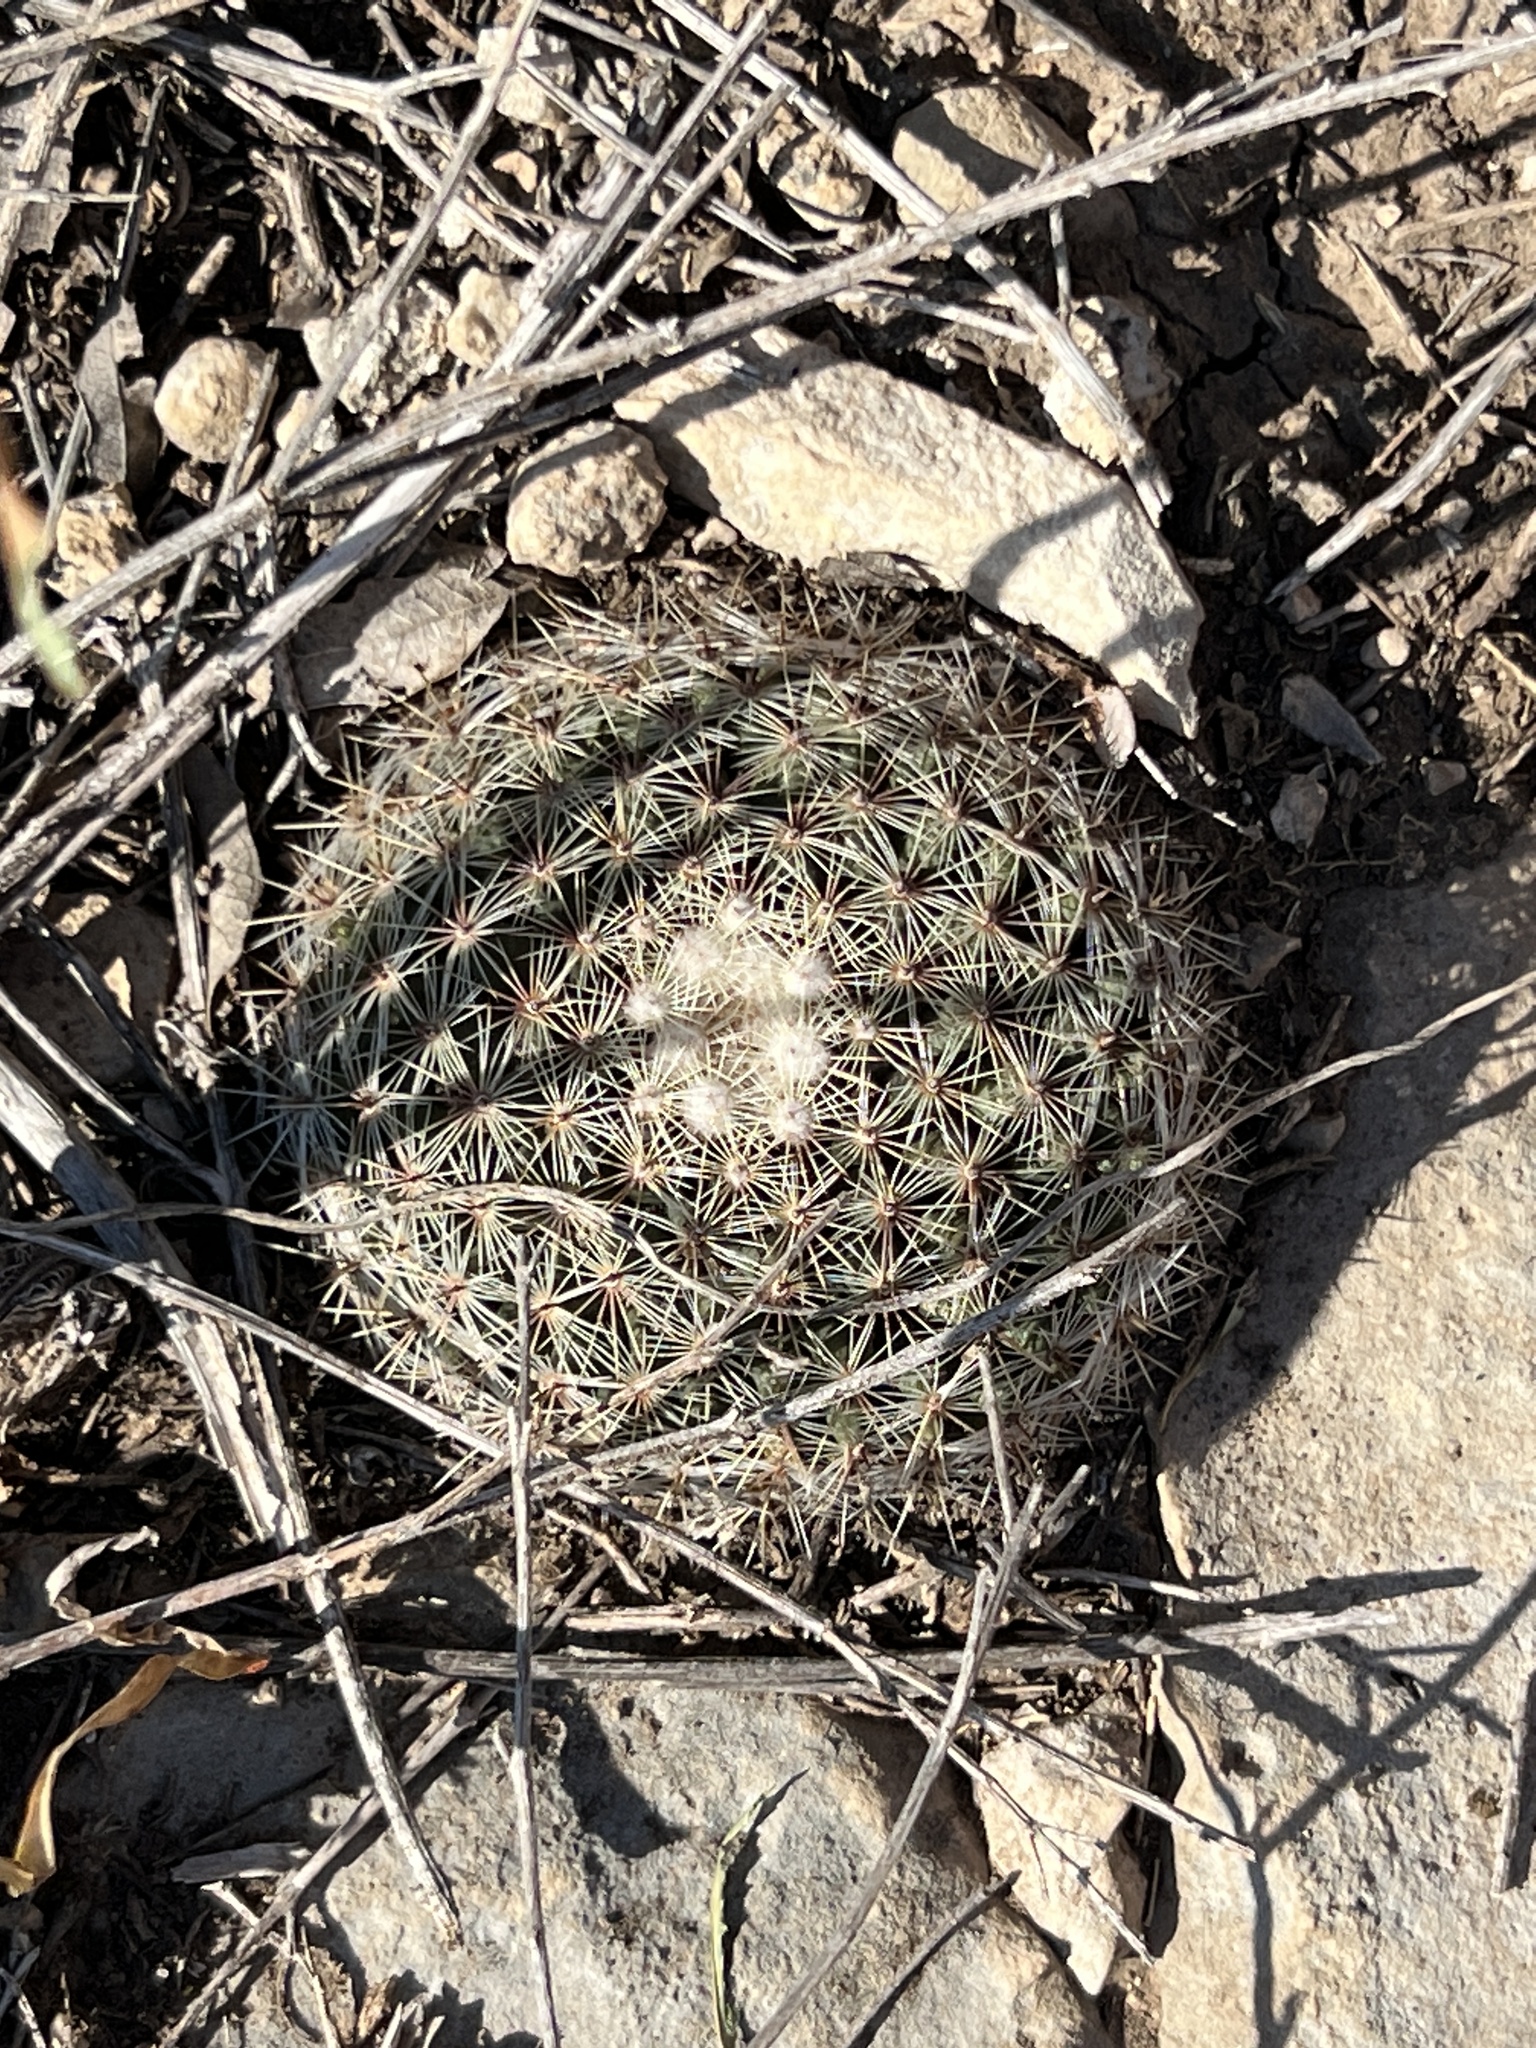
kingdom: Plantae
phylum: Tracheophyta
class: Magnoliopsida
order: Caryophyllales
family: Cactaceae
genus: Mammillaria
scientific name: Mammillaria heyderi
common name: Little nipple cactus
